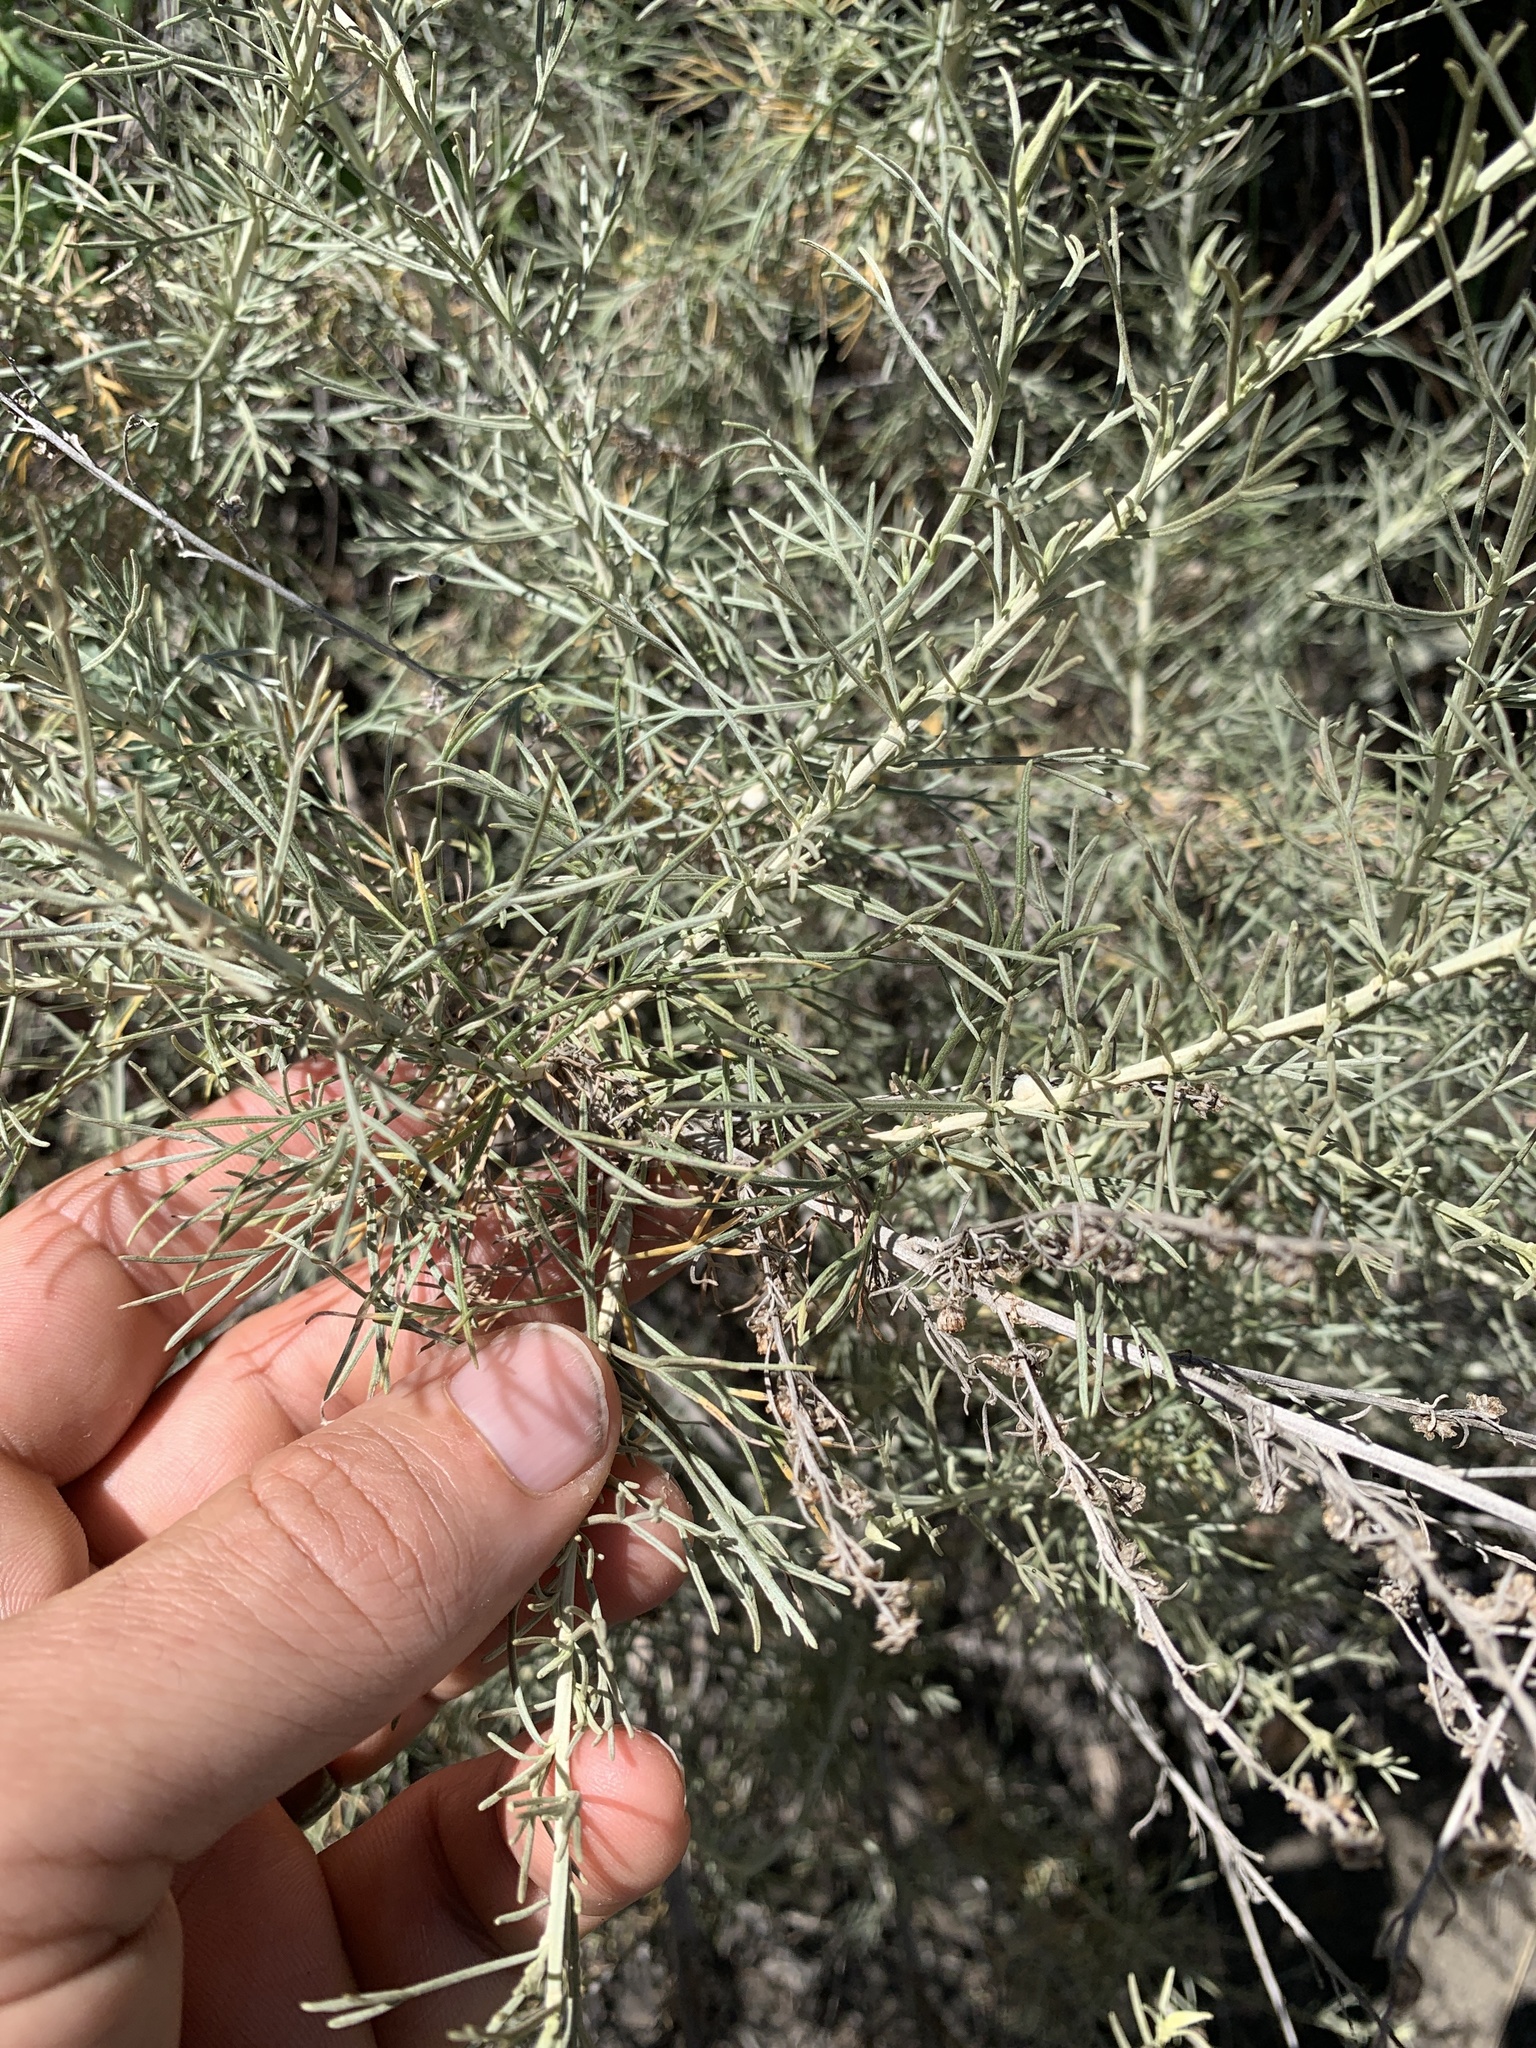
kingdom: Plantae
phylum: Tracheophyta
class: Magnoliopsida
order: Asterales
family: Asteraceae
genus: Artemisia
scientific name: Artemisia californica
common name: California sagebrush
